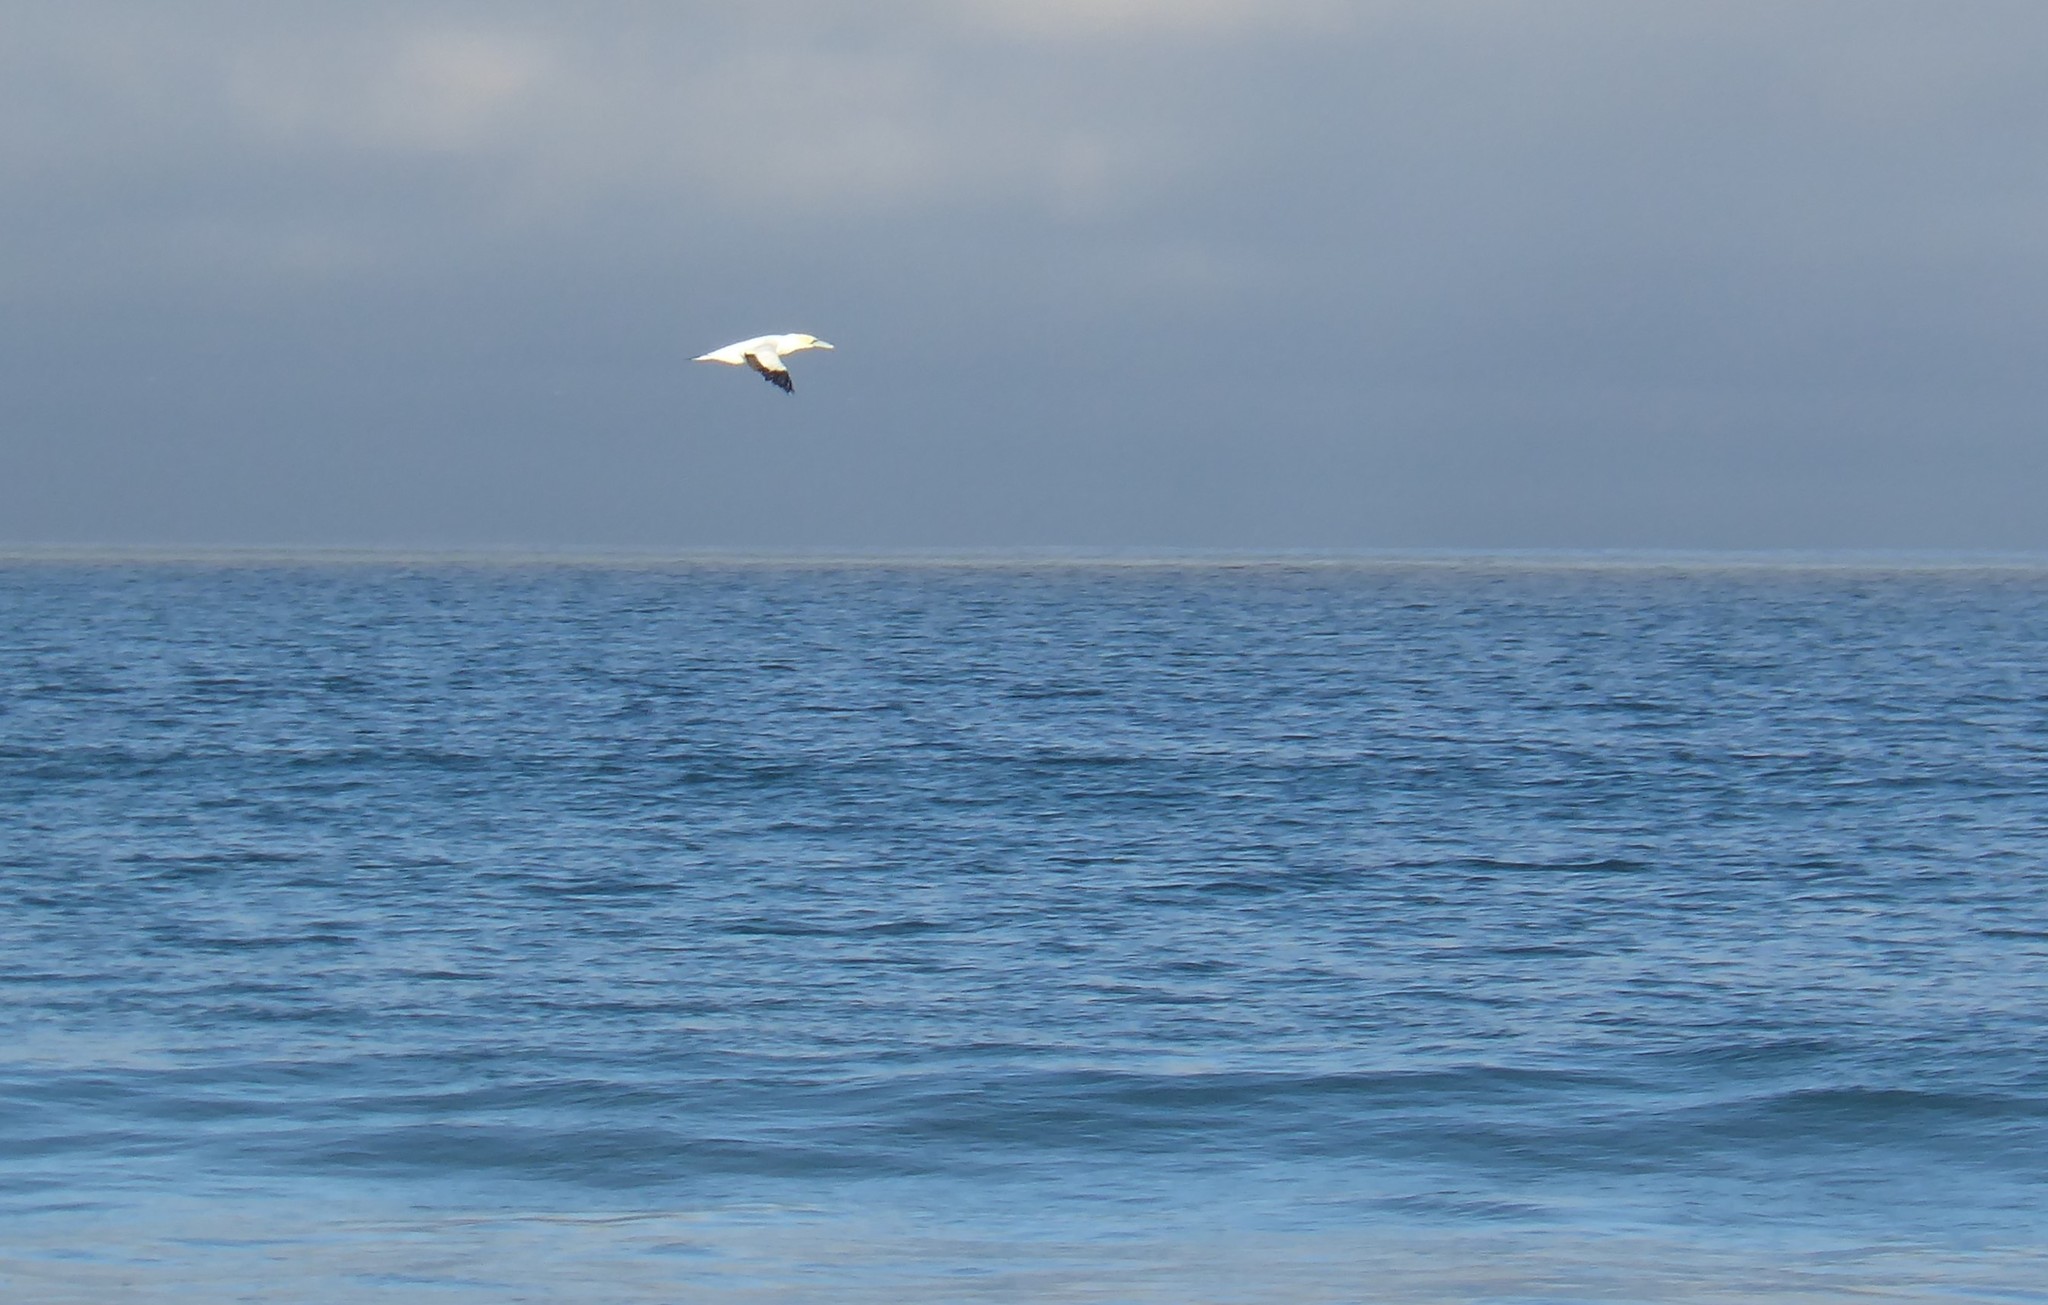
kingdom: Animalia
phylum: Chordata
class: Aves
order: Suliformes
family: Sulidae
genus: Morus
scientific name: Morus serrator
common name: Australasian gannet
